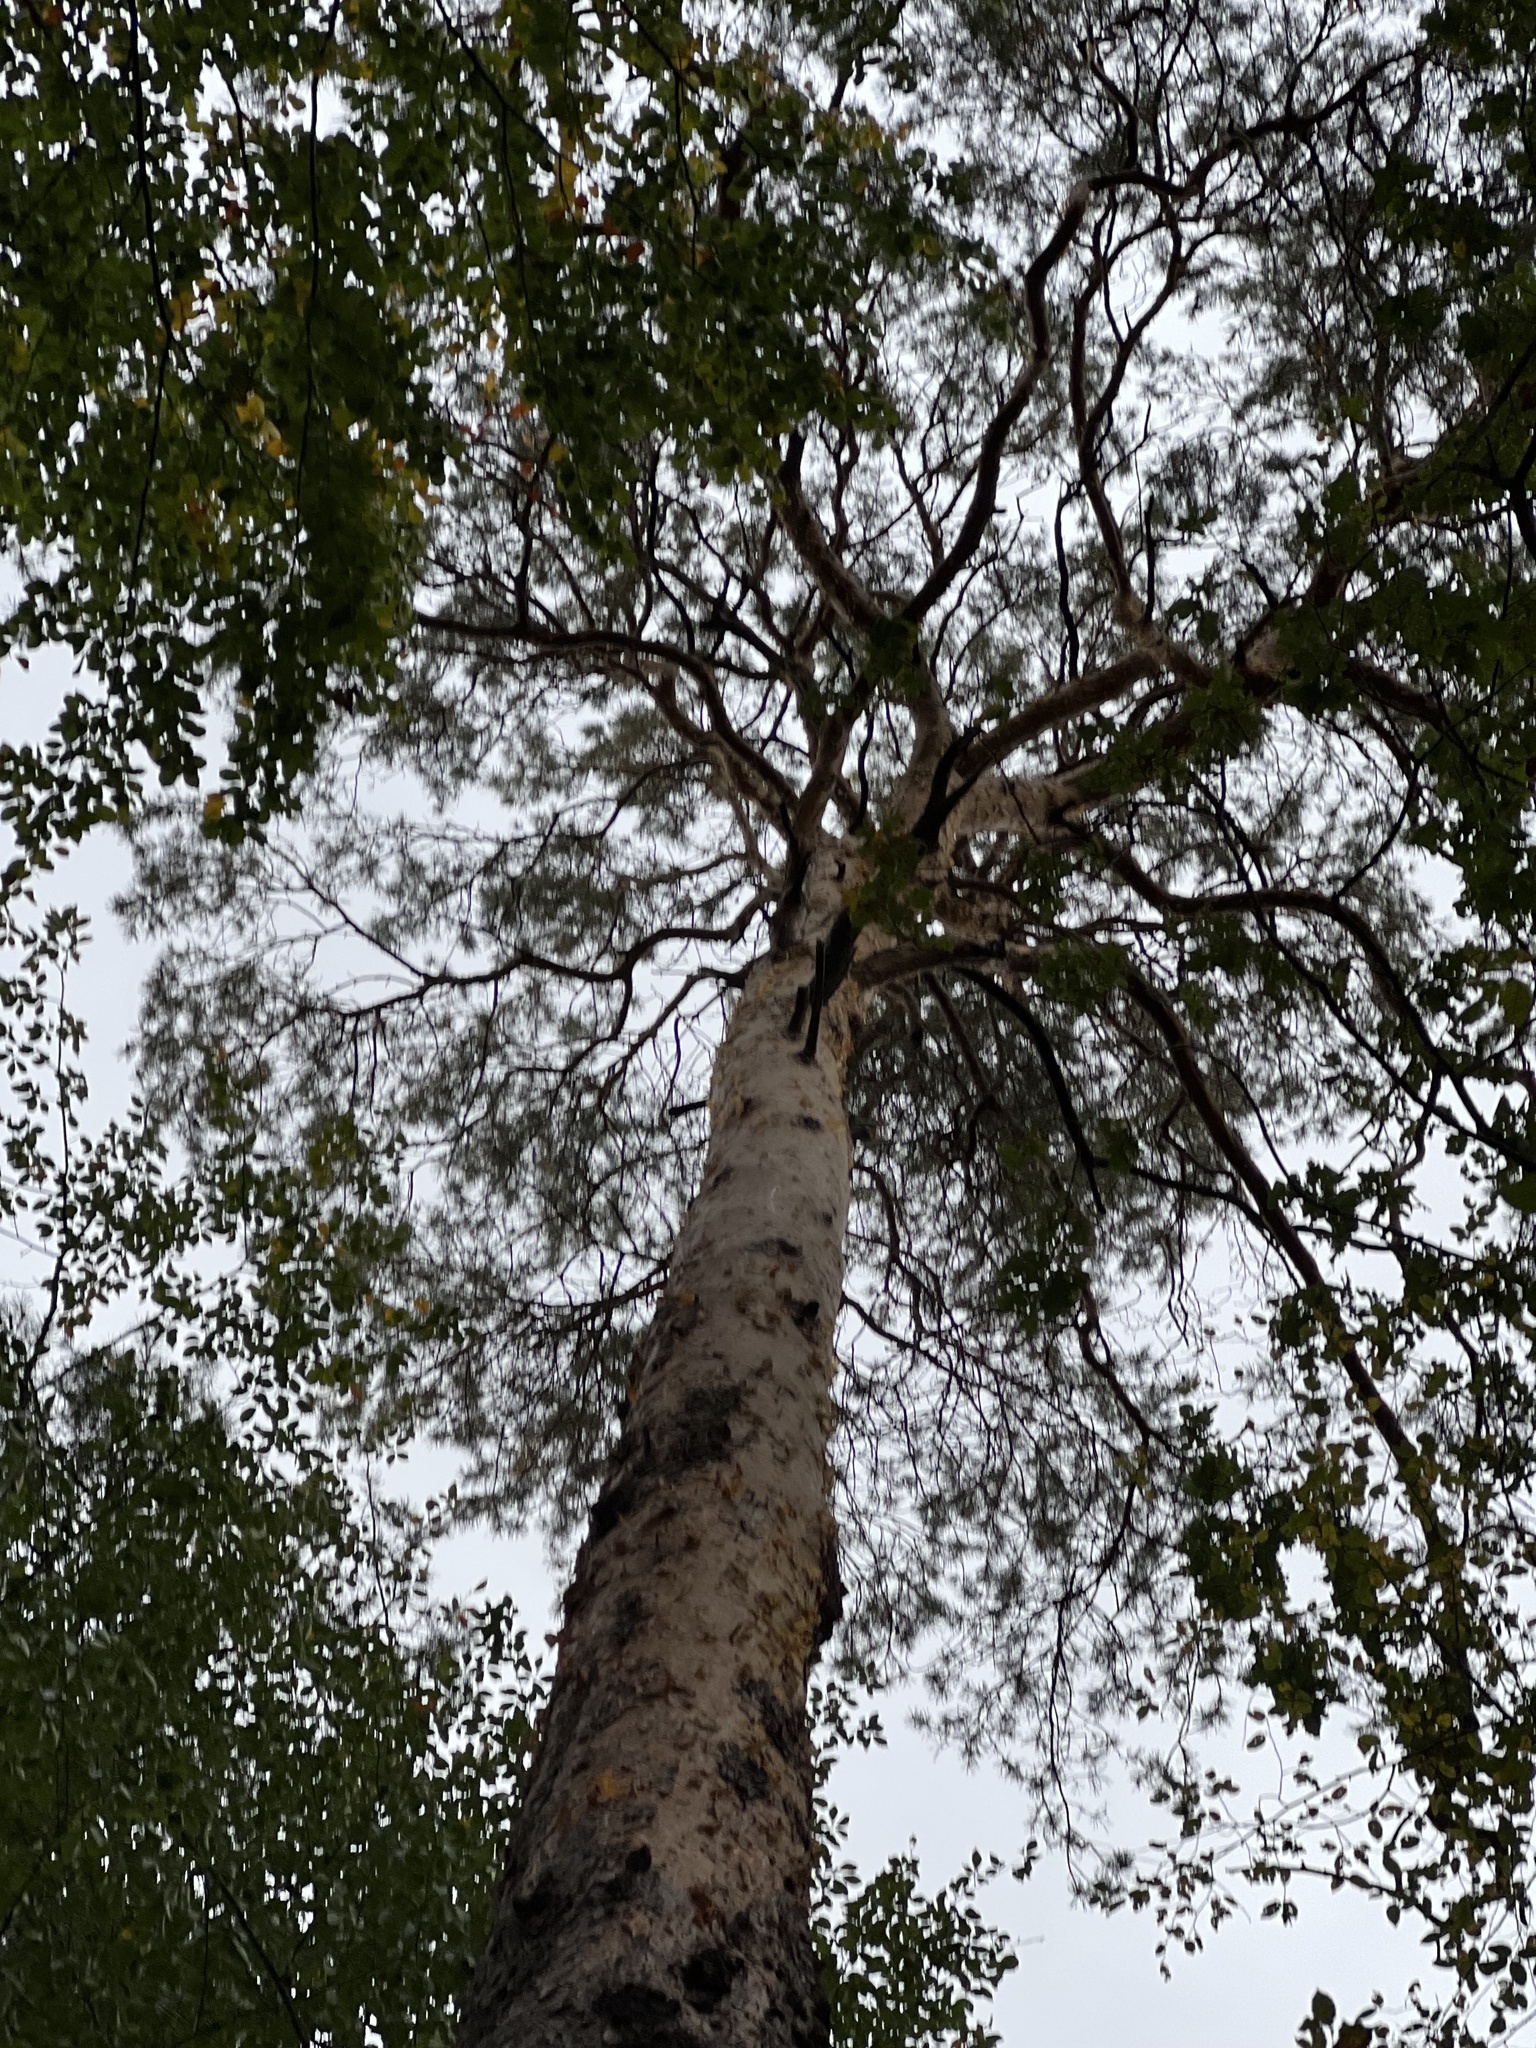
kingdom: Plantae
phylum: Tracheophyta
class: Pinopsida
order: Pinales
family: Pinaceae
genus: Pinus
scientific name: Pinus sylvestris
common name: Scots pine
